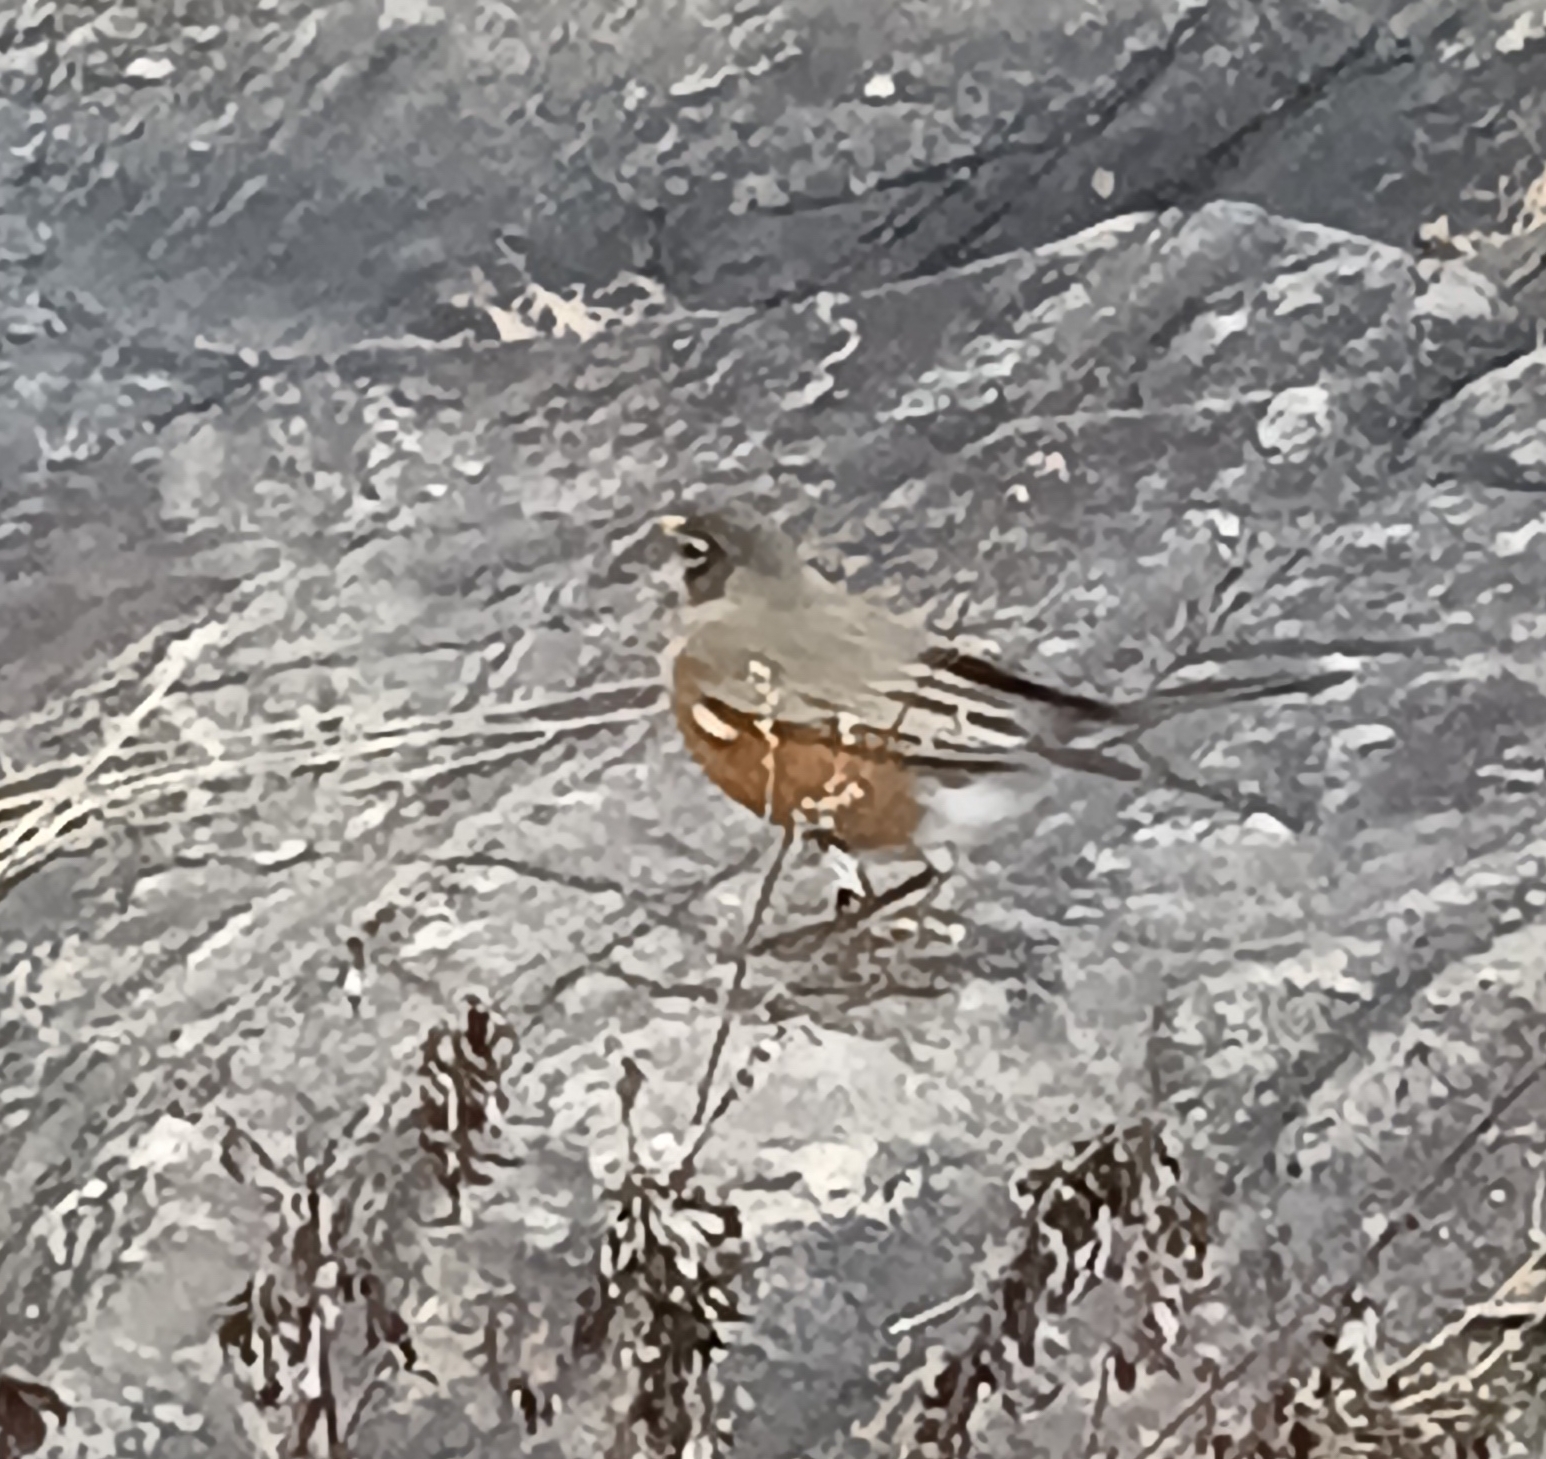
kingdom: Animalia
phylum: Chordata
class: Aves
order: Passeriformes
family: Turdidae
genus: Turdus
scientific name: Turdus migratorius
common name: American robin
